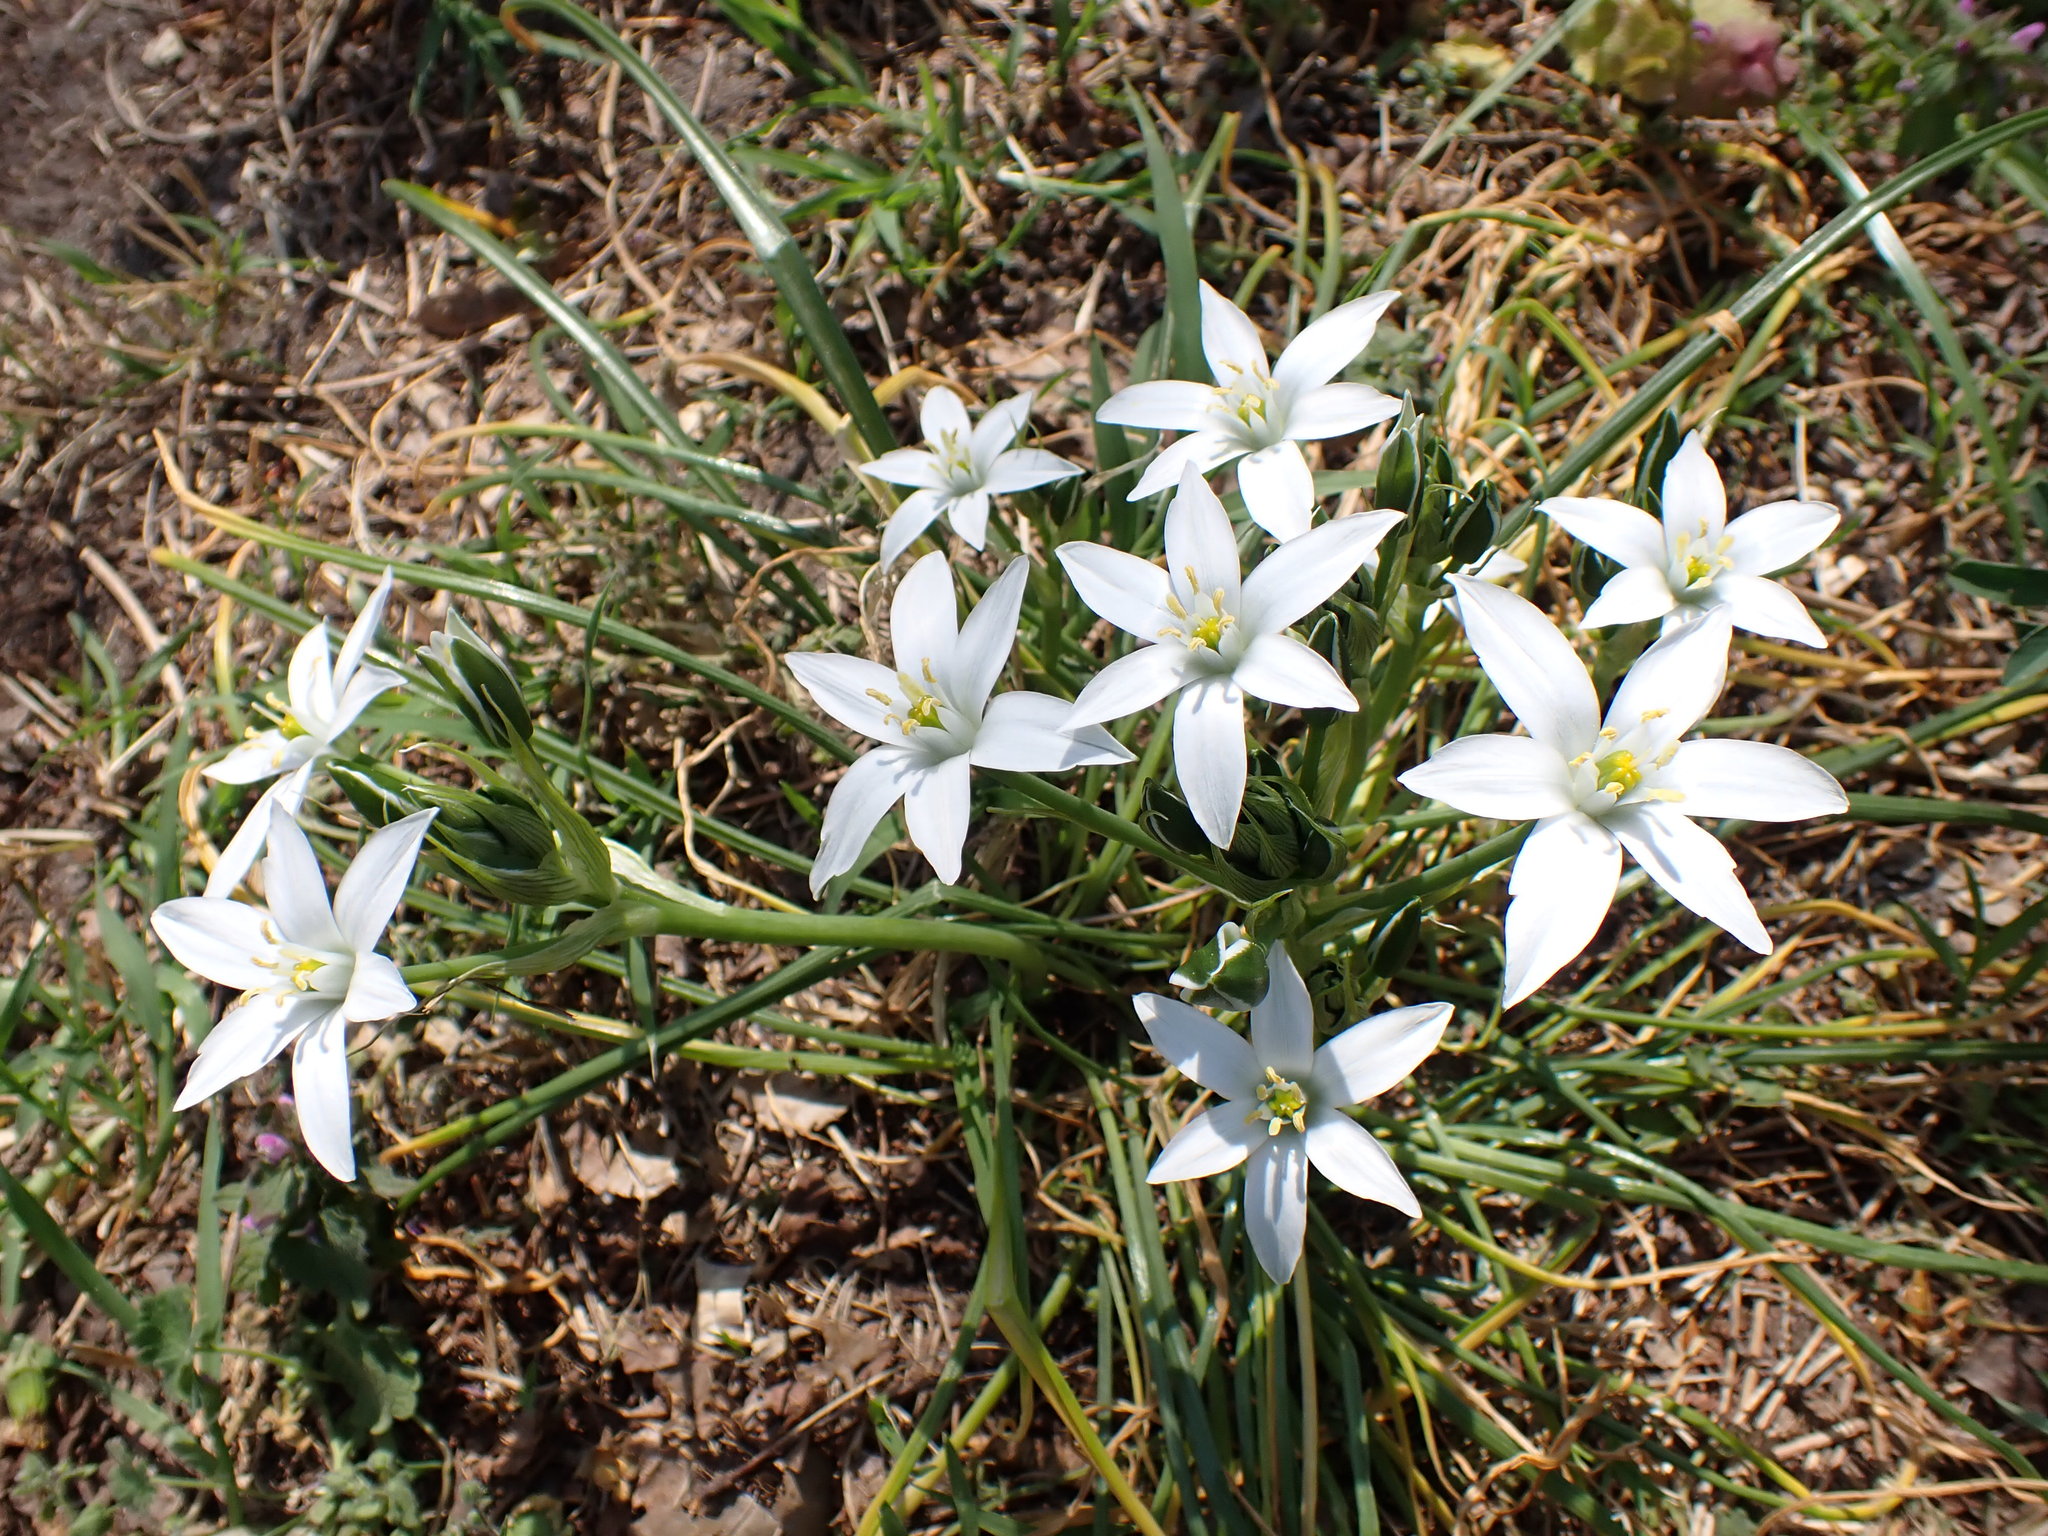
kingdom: Plantae
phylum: Tracheophyta
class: Liliopsida
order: Asparagales
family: Asparagaceae
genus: Ornithogalum
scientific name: Ornithogalum umbellatum
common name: Garden star-of-bethlehem
